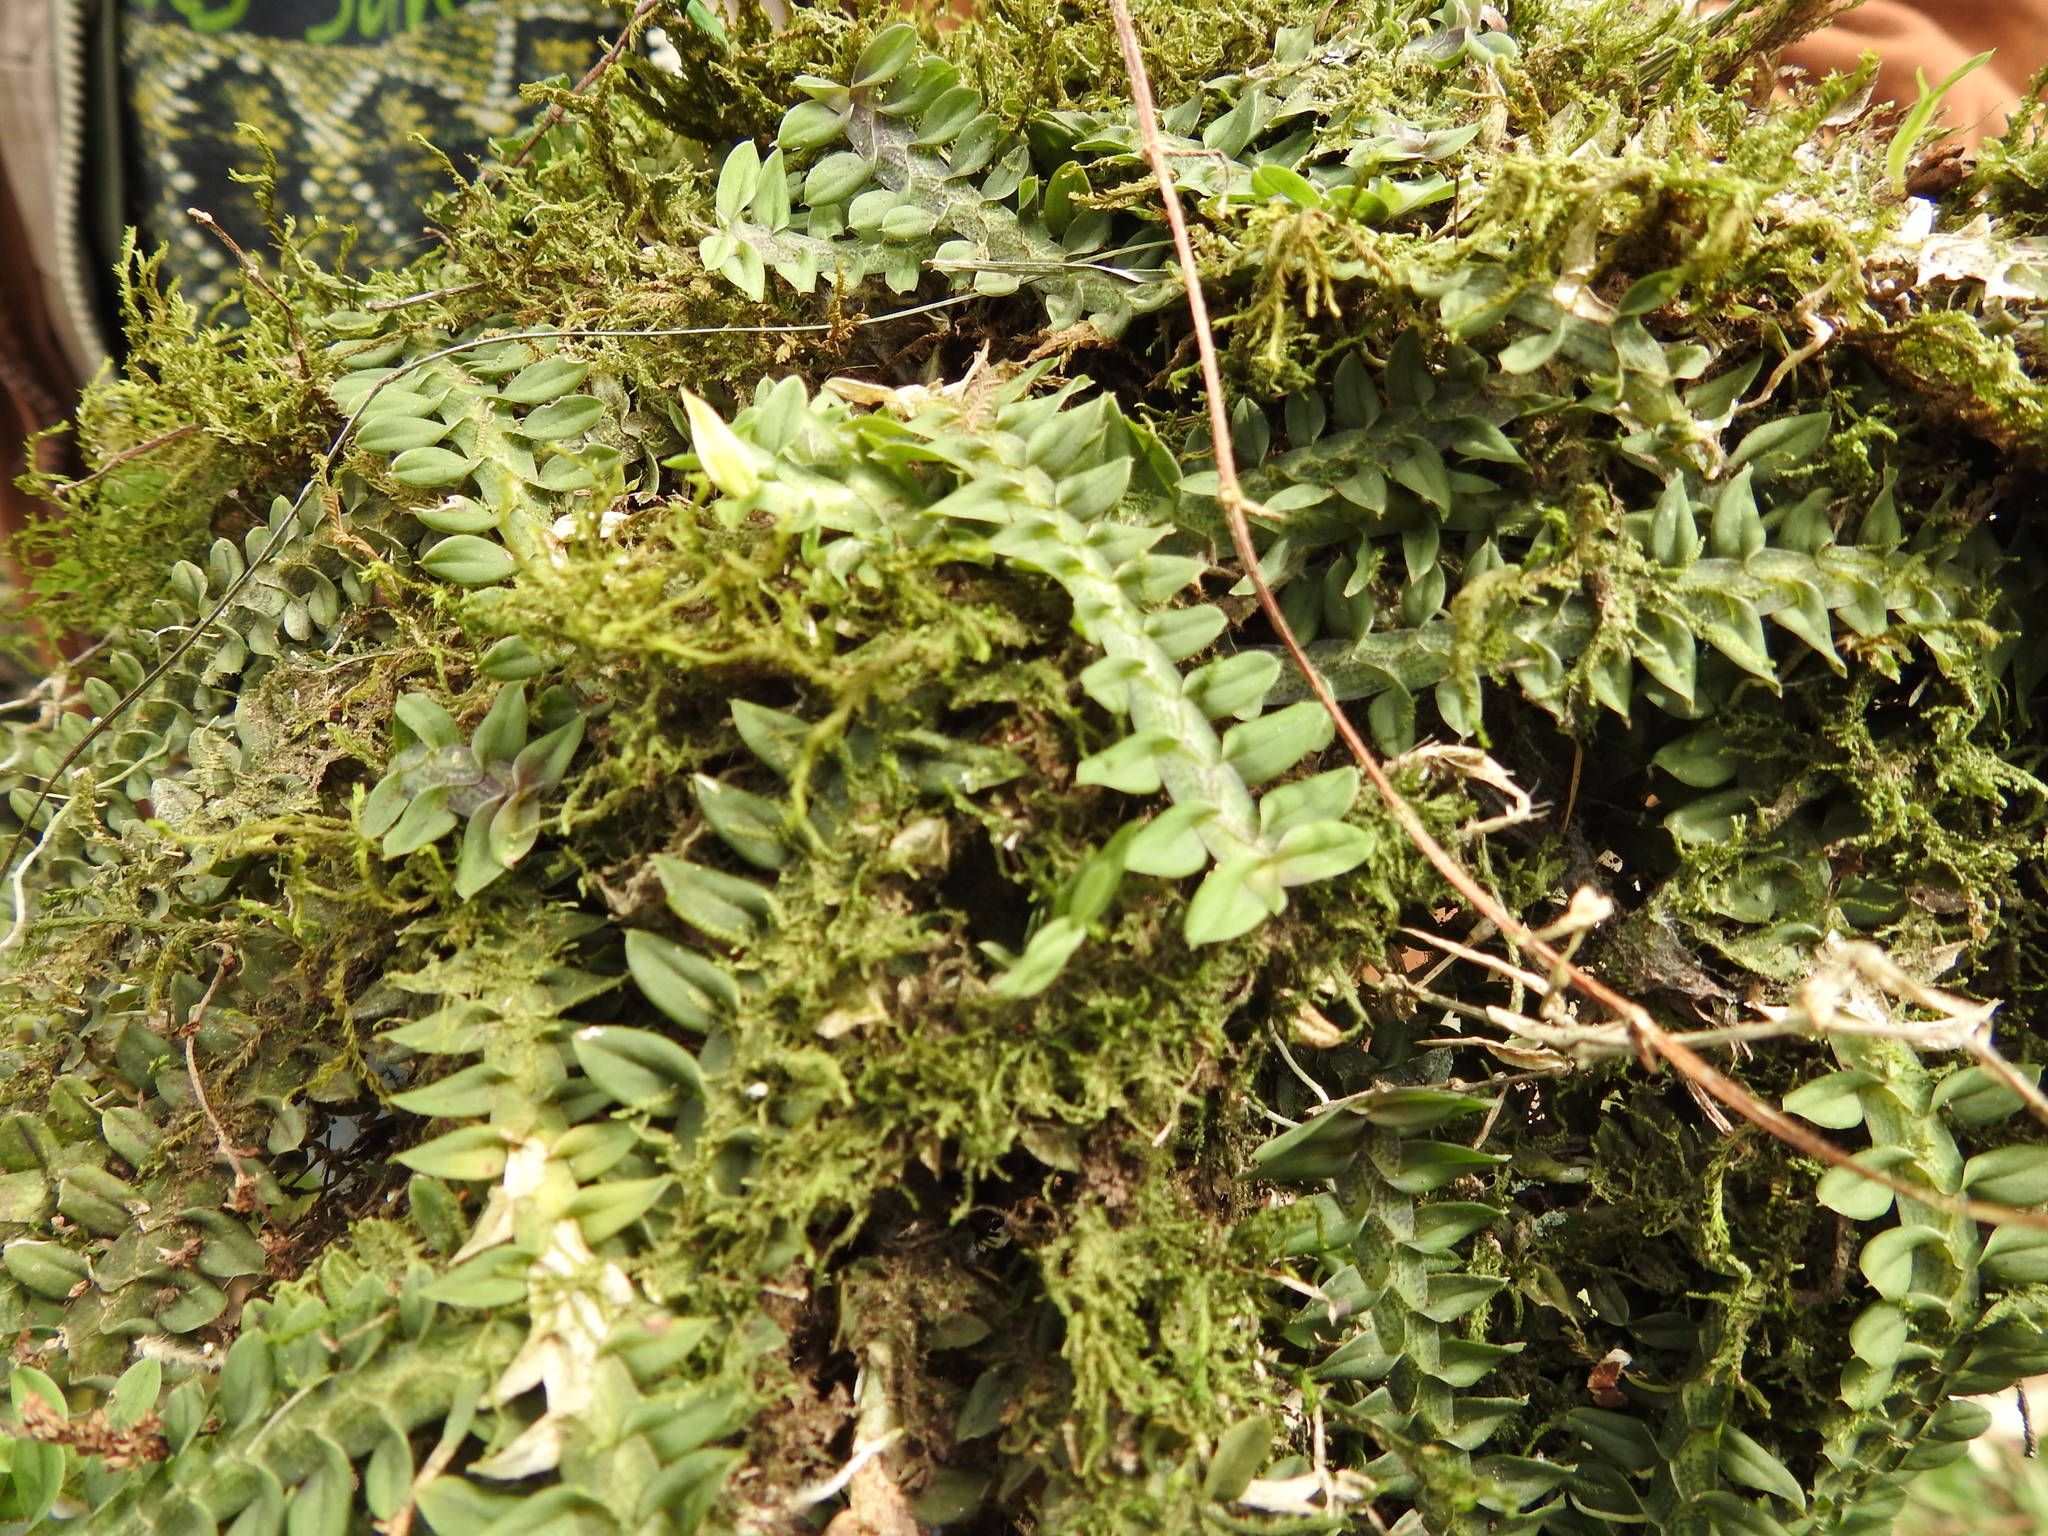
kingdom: Plantae
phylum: Tracheophyta
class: Liliopsida
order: Asparagales
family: Orchidaceae
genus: Dichaea
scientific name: Dichaea neglecta
